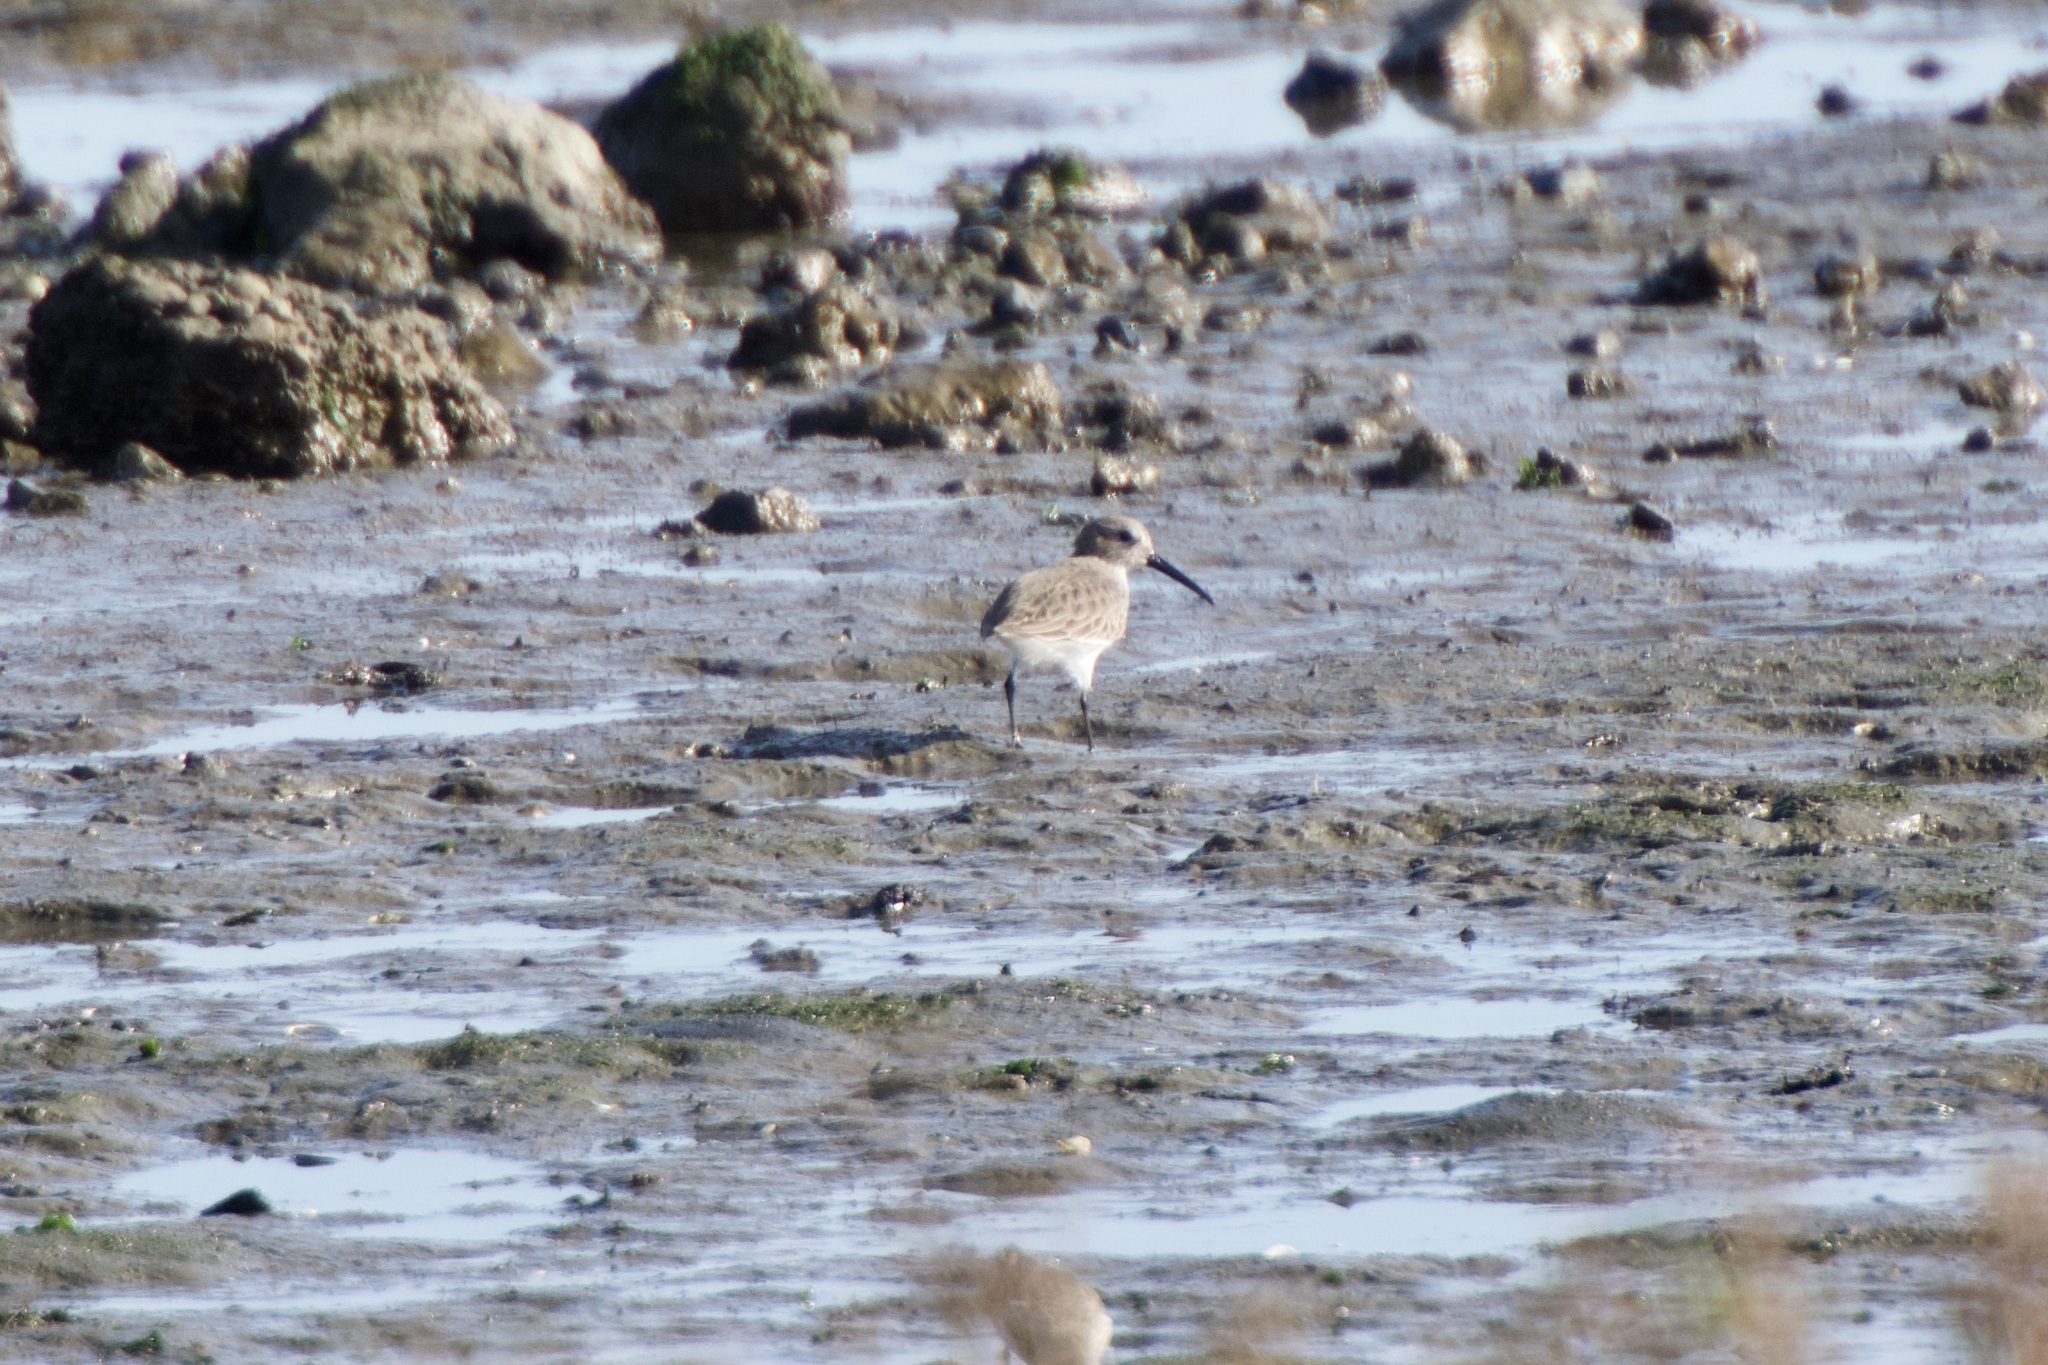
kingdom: Animalia
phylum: Chordata
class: Aves
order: Charadriiformes
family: Scolopacidae
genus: Calidris
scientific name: Calidris alpina
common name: Dunlin
